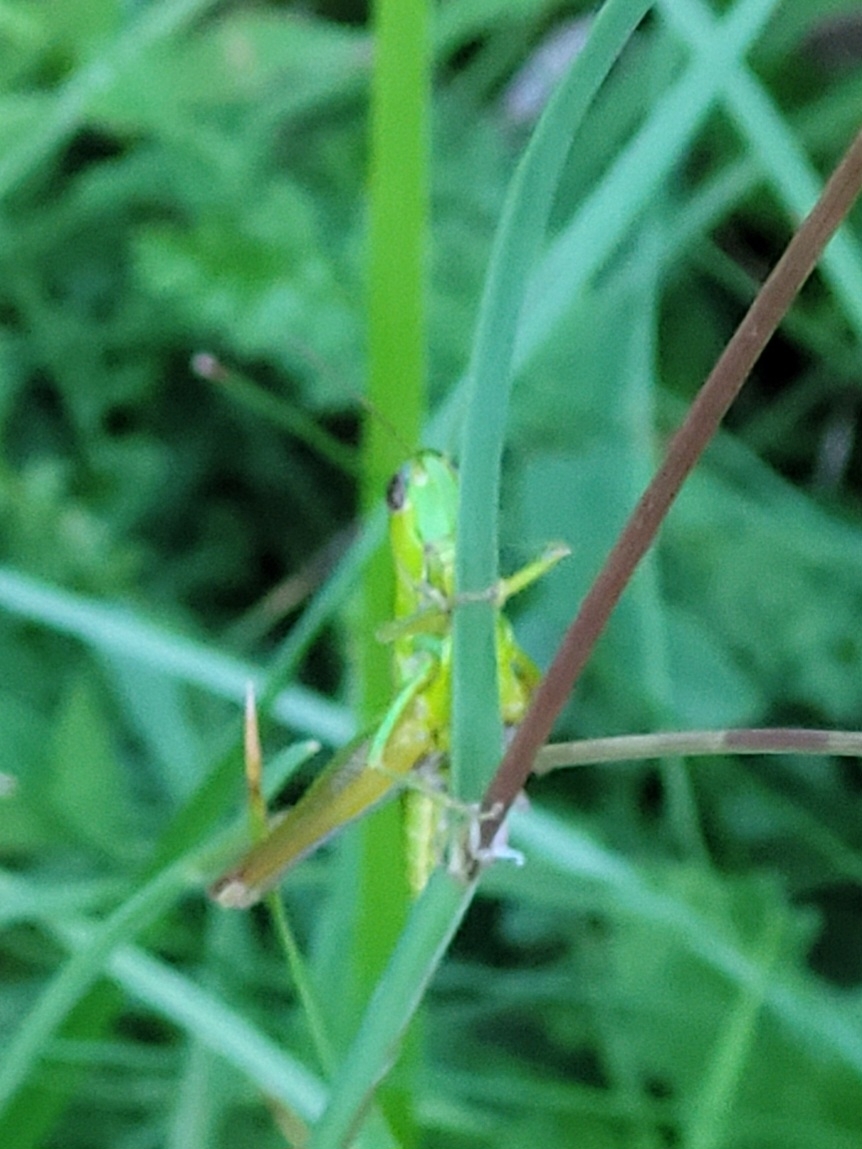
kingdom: Animalia
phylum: Arthropoda
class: Insecta
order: Orthoptera
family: Acrididae
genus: Euthystira
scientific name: Euthystira brachyptera
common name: Small gold grasshopper
